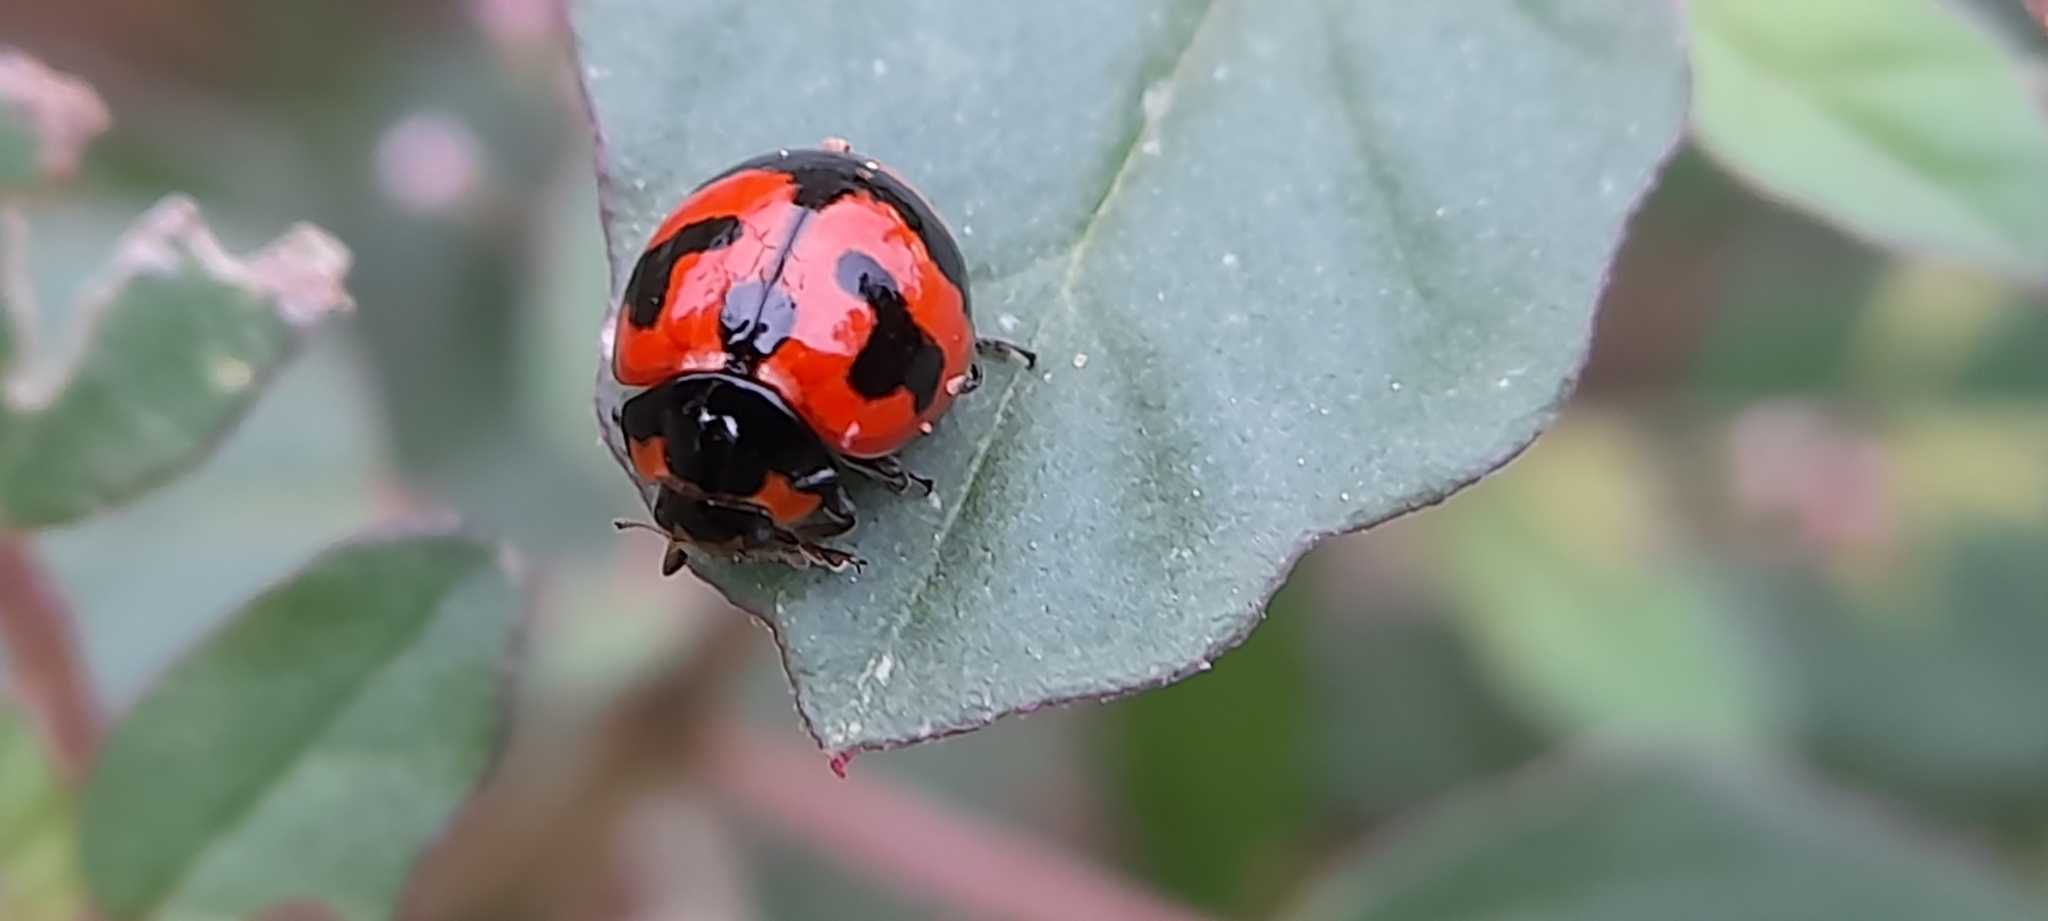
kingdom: Animalia
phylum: Arthropoda
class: Insecta
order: Coleoptera
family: Coccinellidae
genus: Coccinella
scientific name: Coccinella transversalis
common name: Transverse lady beetle
